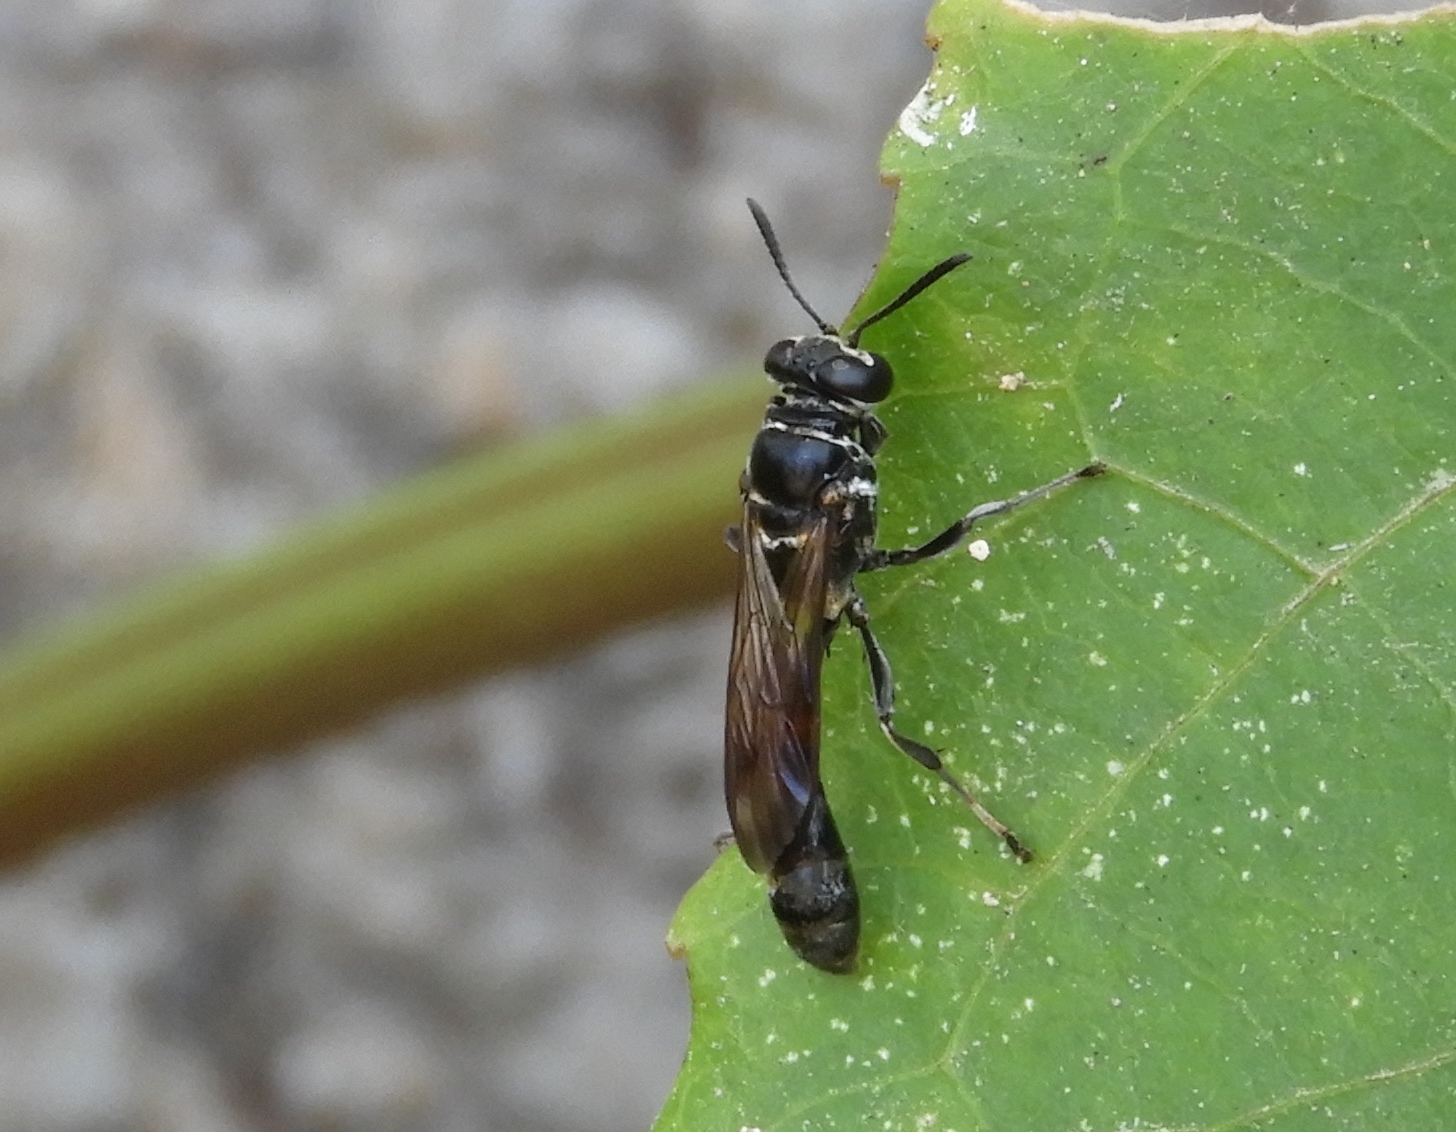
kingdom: Animalia
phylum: Arthropoda
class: Insecta
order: Hymenoptera
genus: Trypargilum
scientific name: Trypargilum
